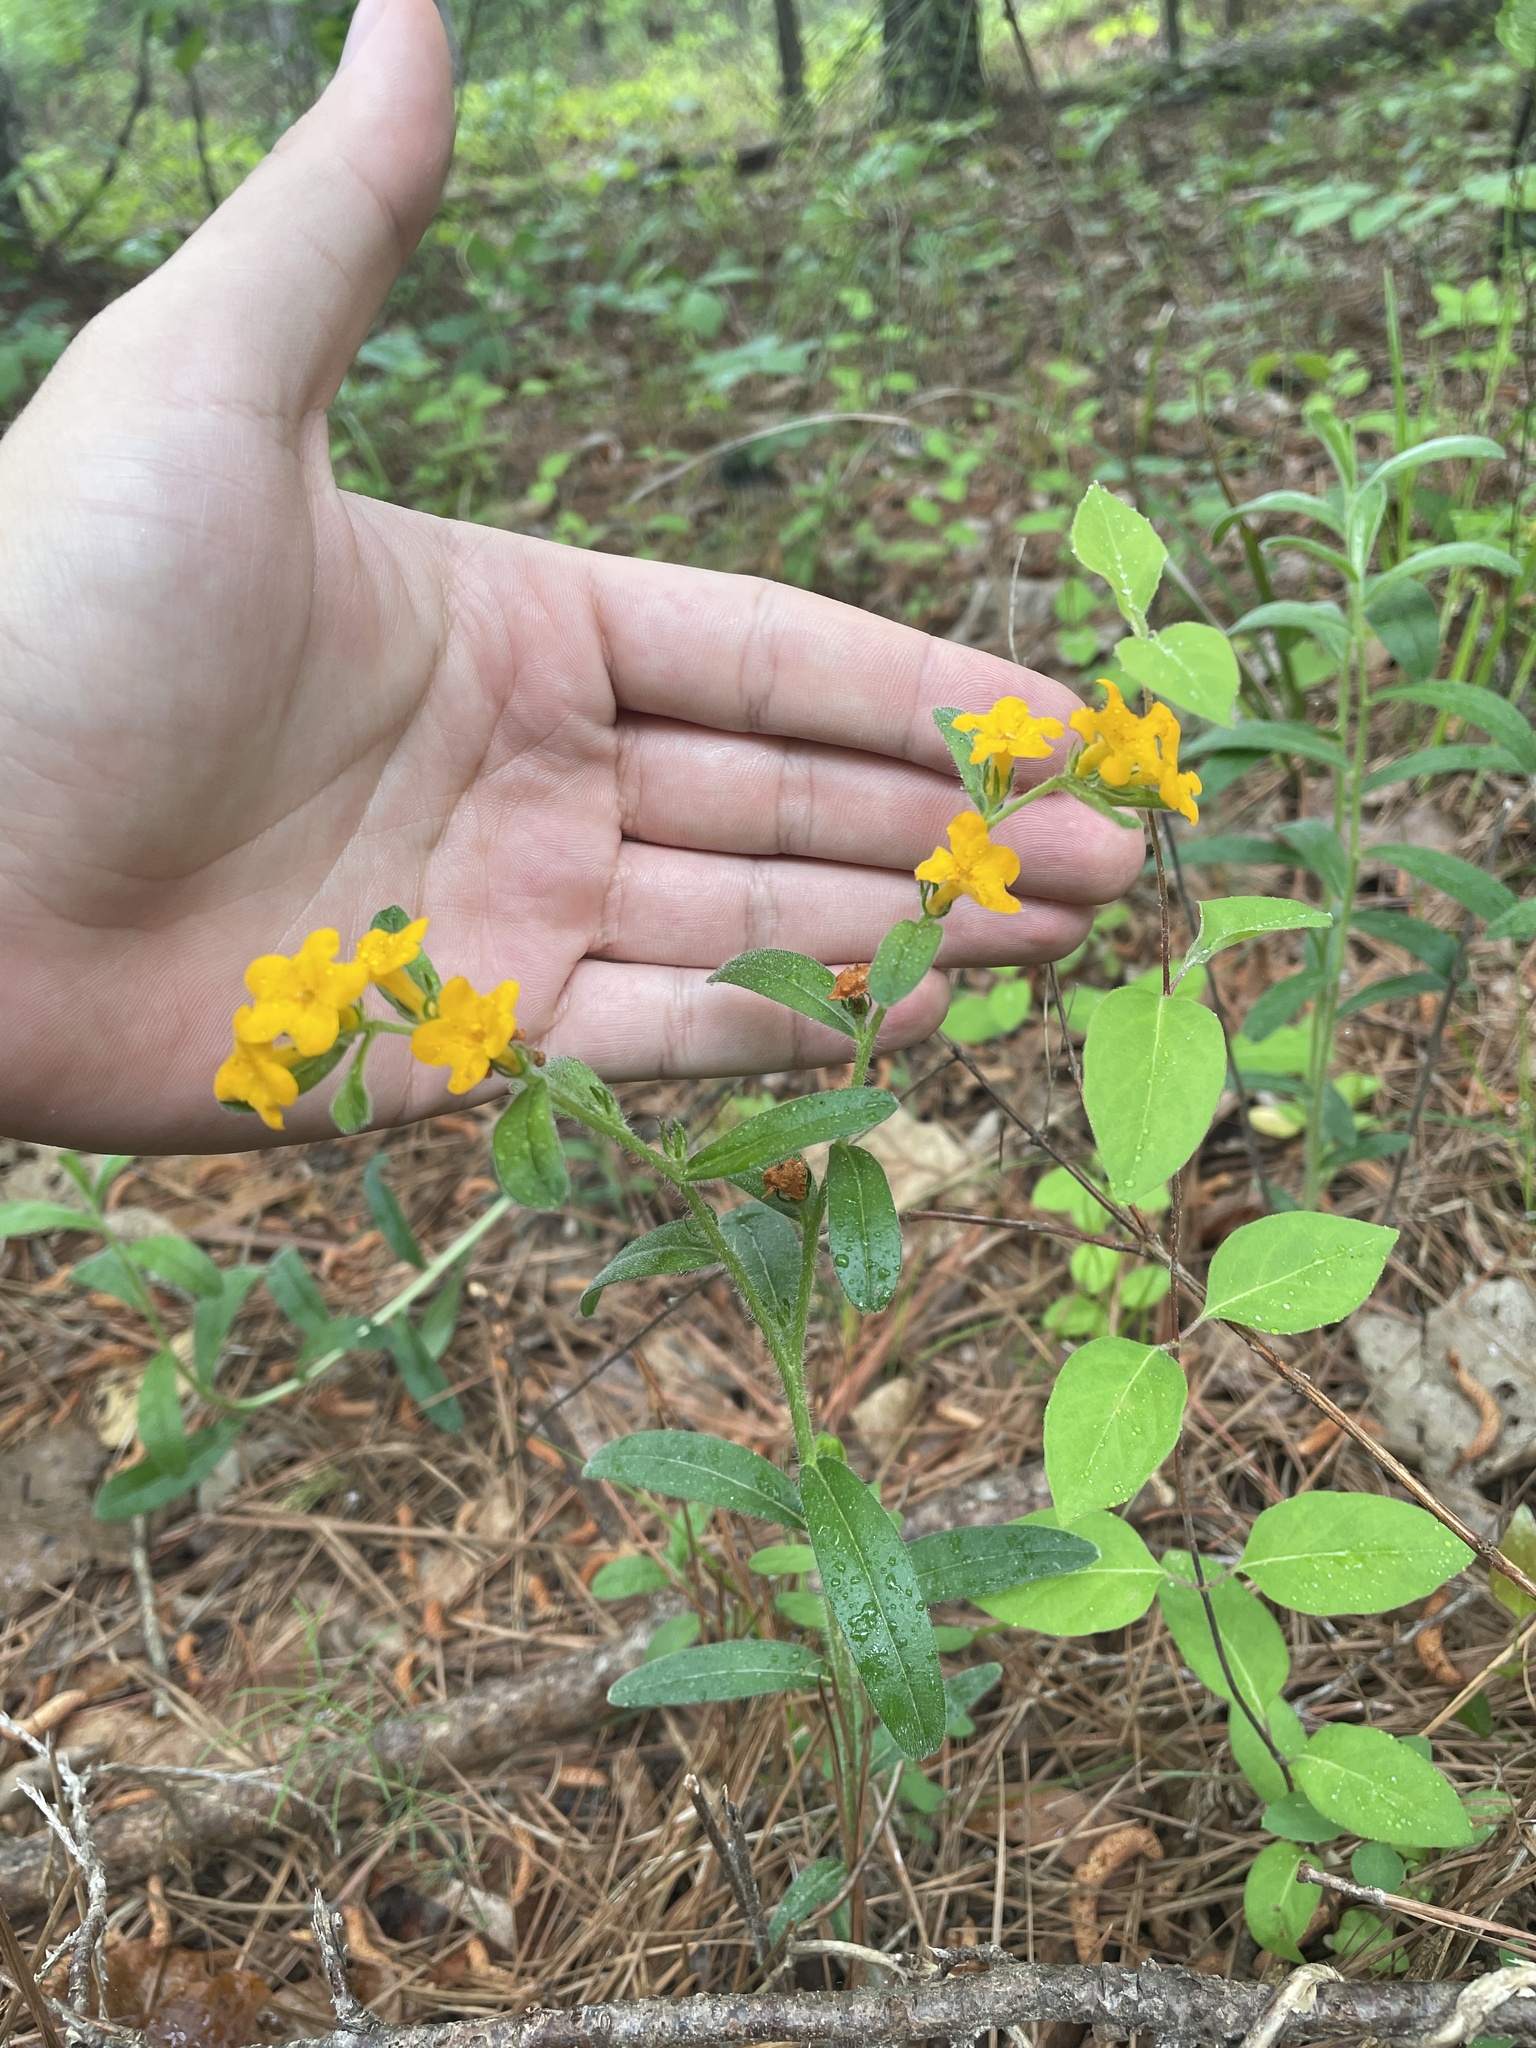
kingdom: Plantae
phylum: Tracheophyta
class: Magnoliopsida
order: Boraginales
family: Boraginaceae
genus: Lithospermum
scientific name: Lithospermum canescens
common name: Hoary puccoon
